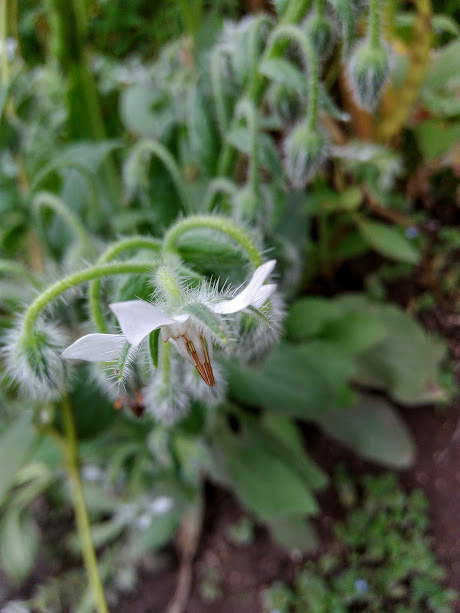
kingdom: Plantae
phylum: Tracheophyta
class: Magnoliopsida
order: Boraginales
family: Boraginaceae
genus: Borago
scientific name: Borago officinalis
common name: Borage
